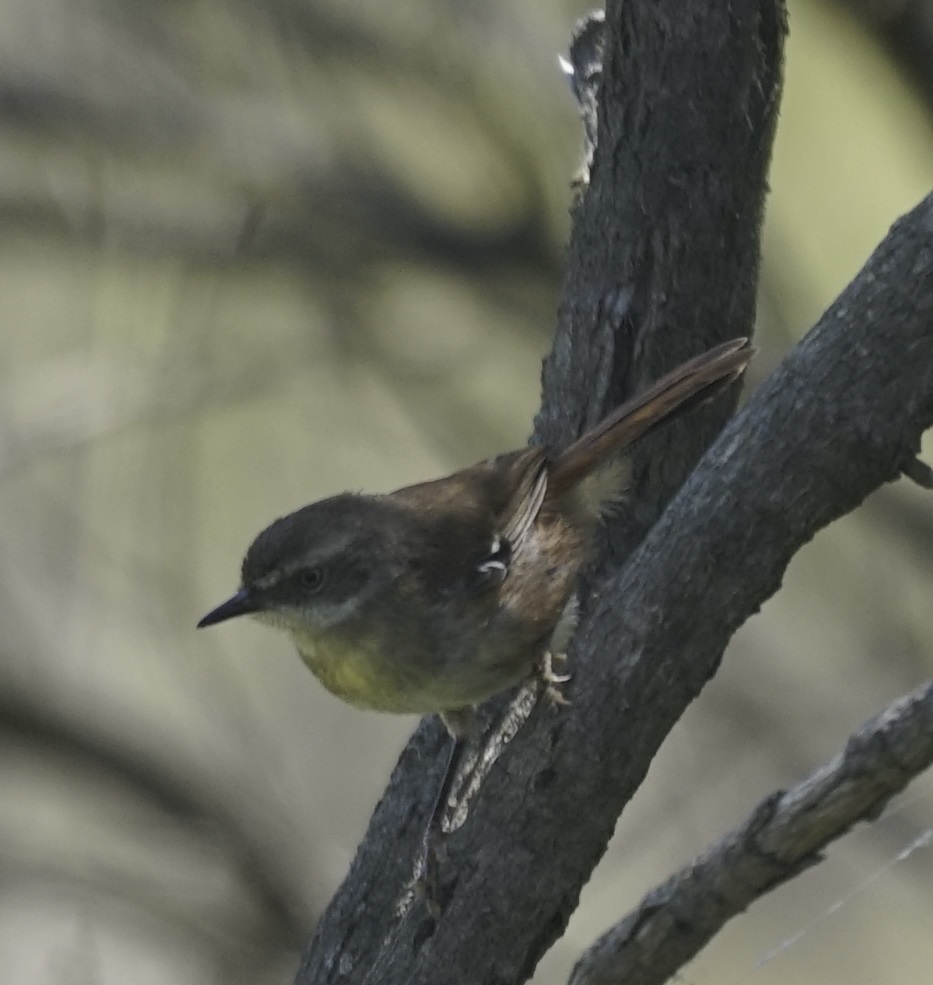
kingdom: Animalia
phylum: Chordata
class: Aves
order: Passeriformes
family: Acanthizidae
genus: Sericornis
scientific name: Sericornis frontalis
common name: White-browed scrubwren
